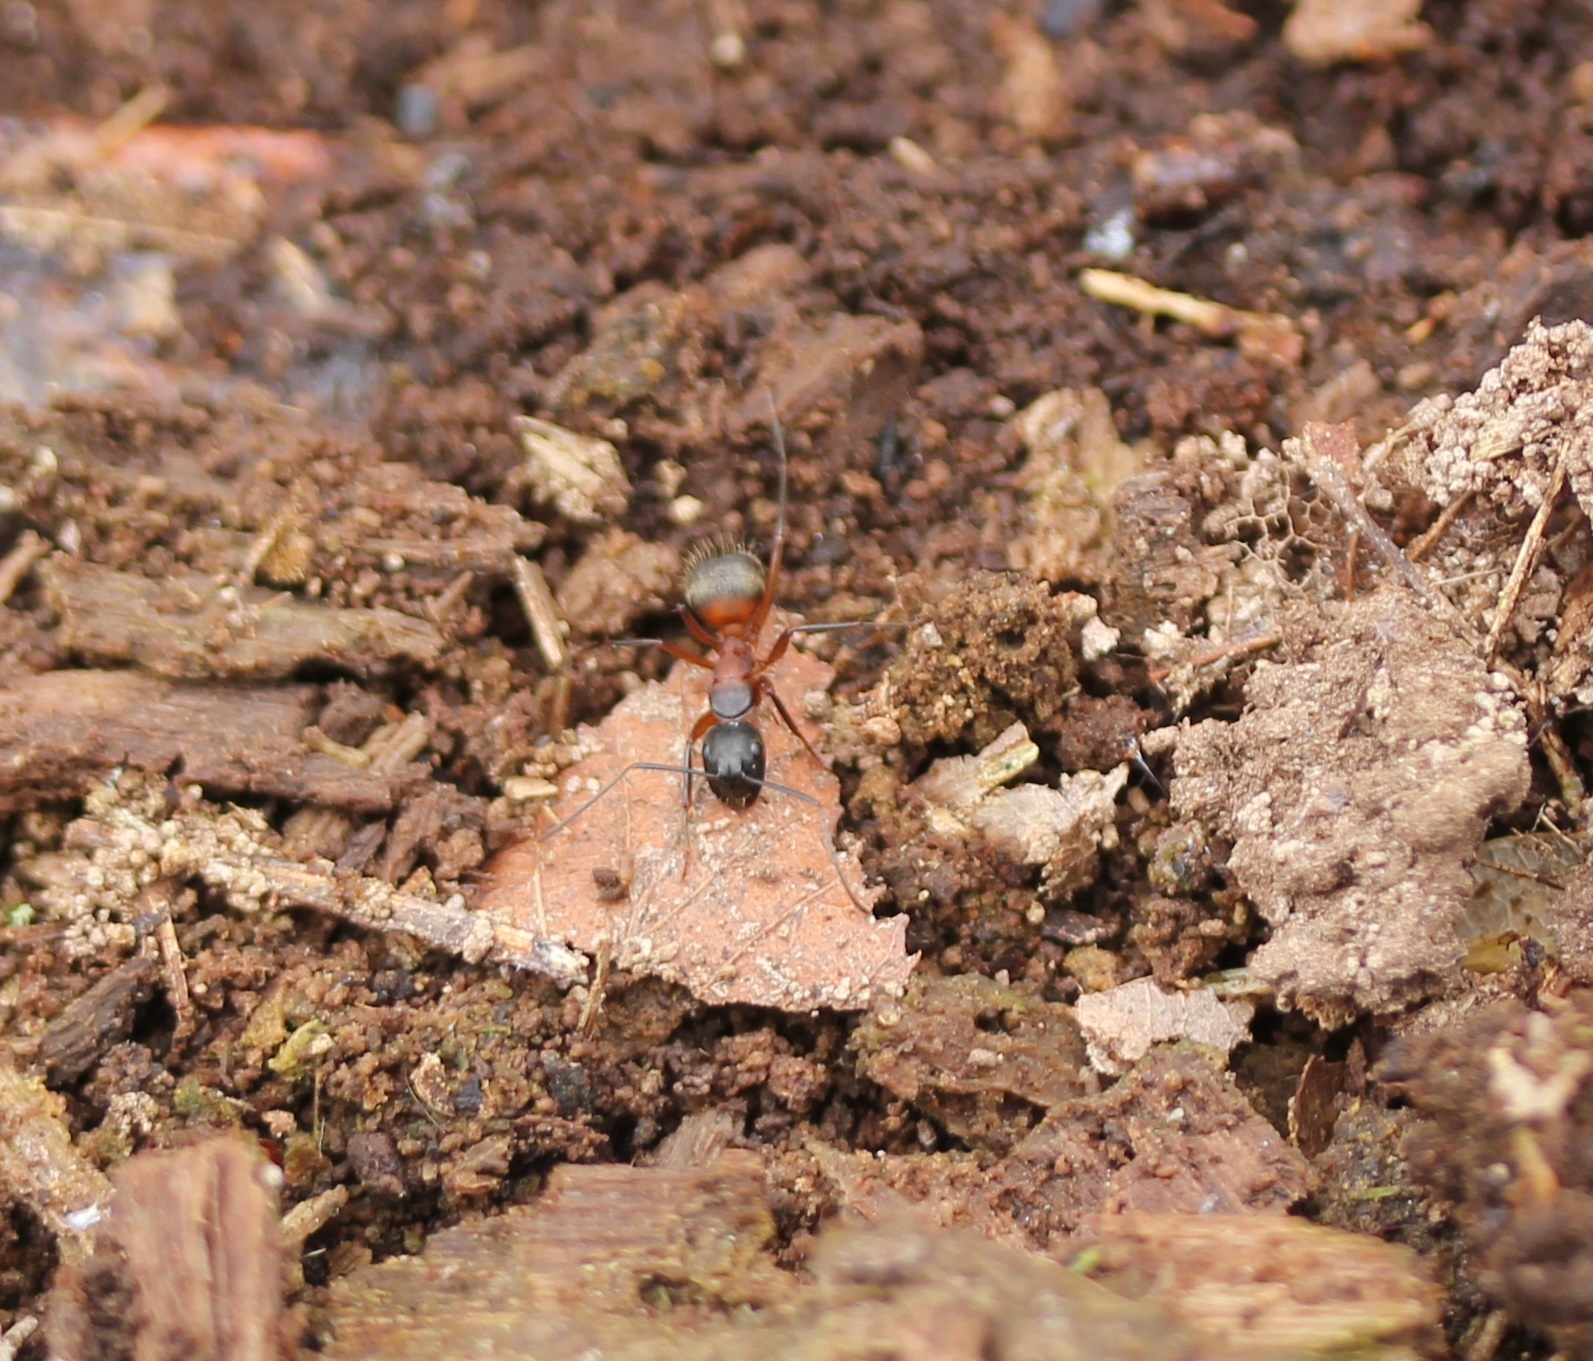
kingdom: Animalia
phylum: Arthropoda
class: Insecta
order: Hymenoptera
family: Formicidae
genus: Camponotus
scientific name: Camponotus chromaiodes
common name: Red carpenter ant
